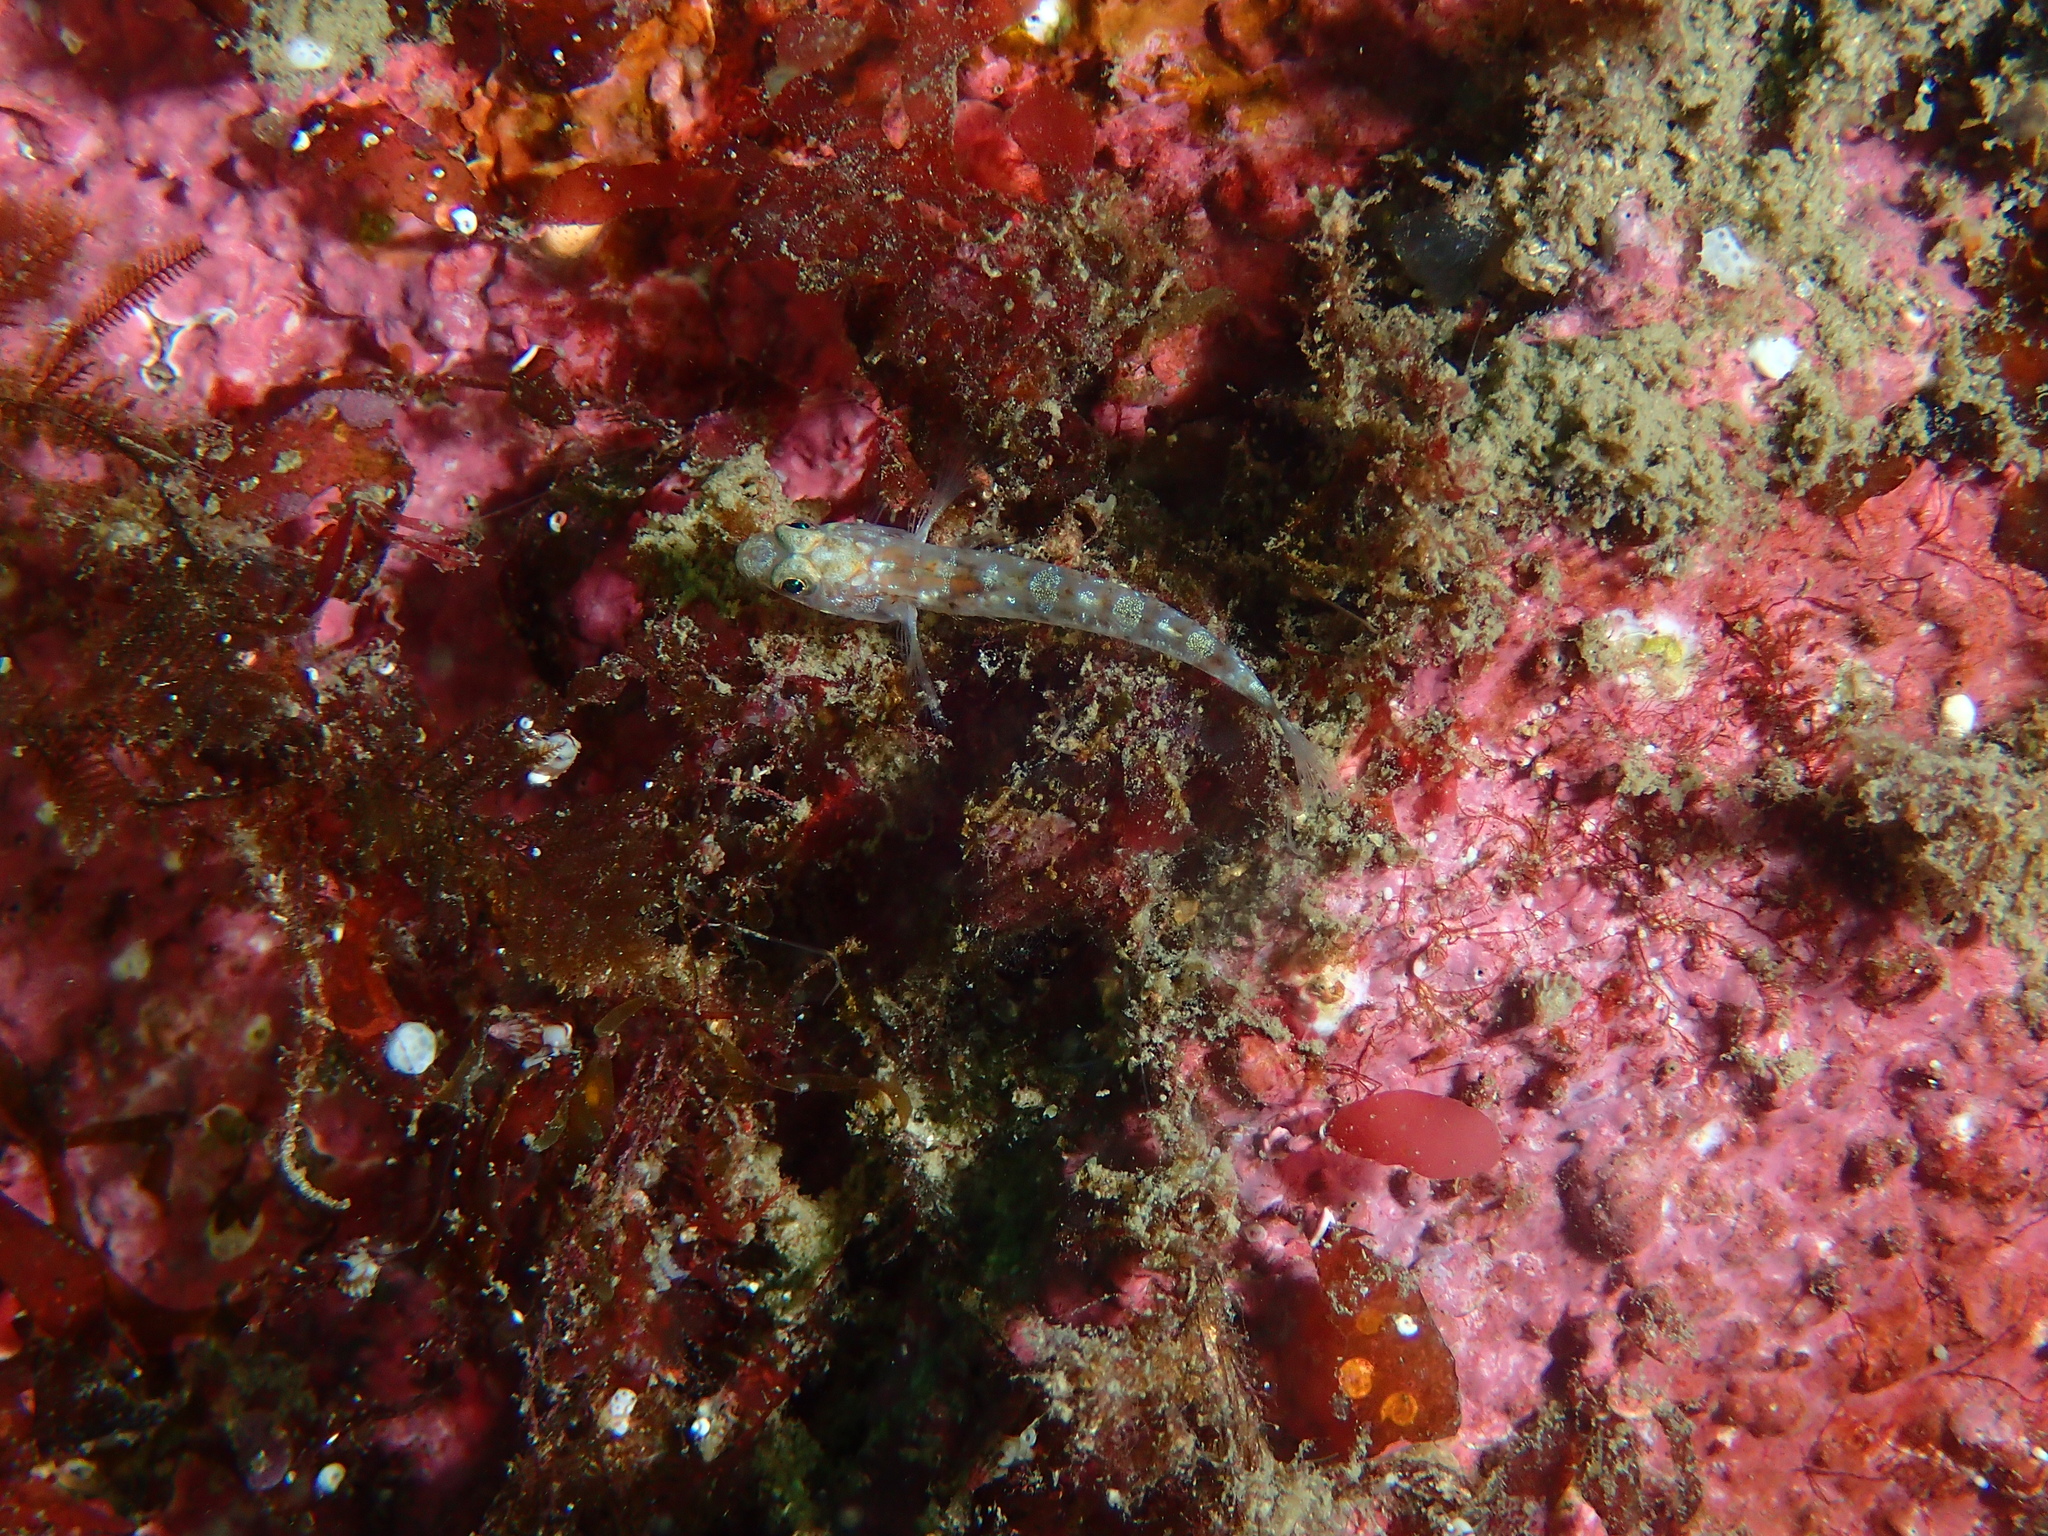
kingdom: Animalia
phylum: Chordata
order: Perciformes
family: Gobiidae
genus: Pomatoschistus
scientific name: Pomatoschistus pictus
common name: Painted goby
